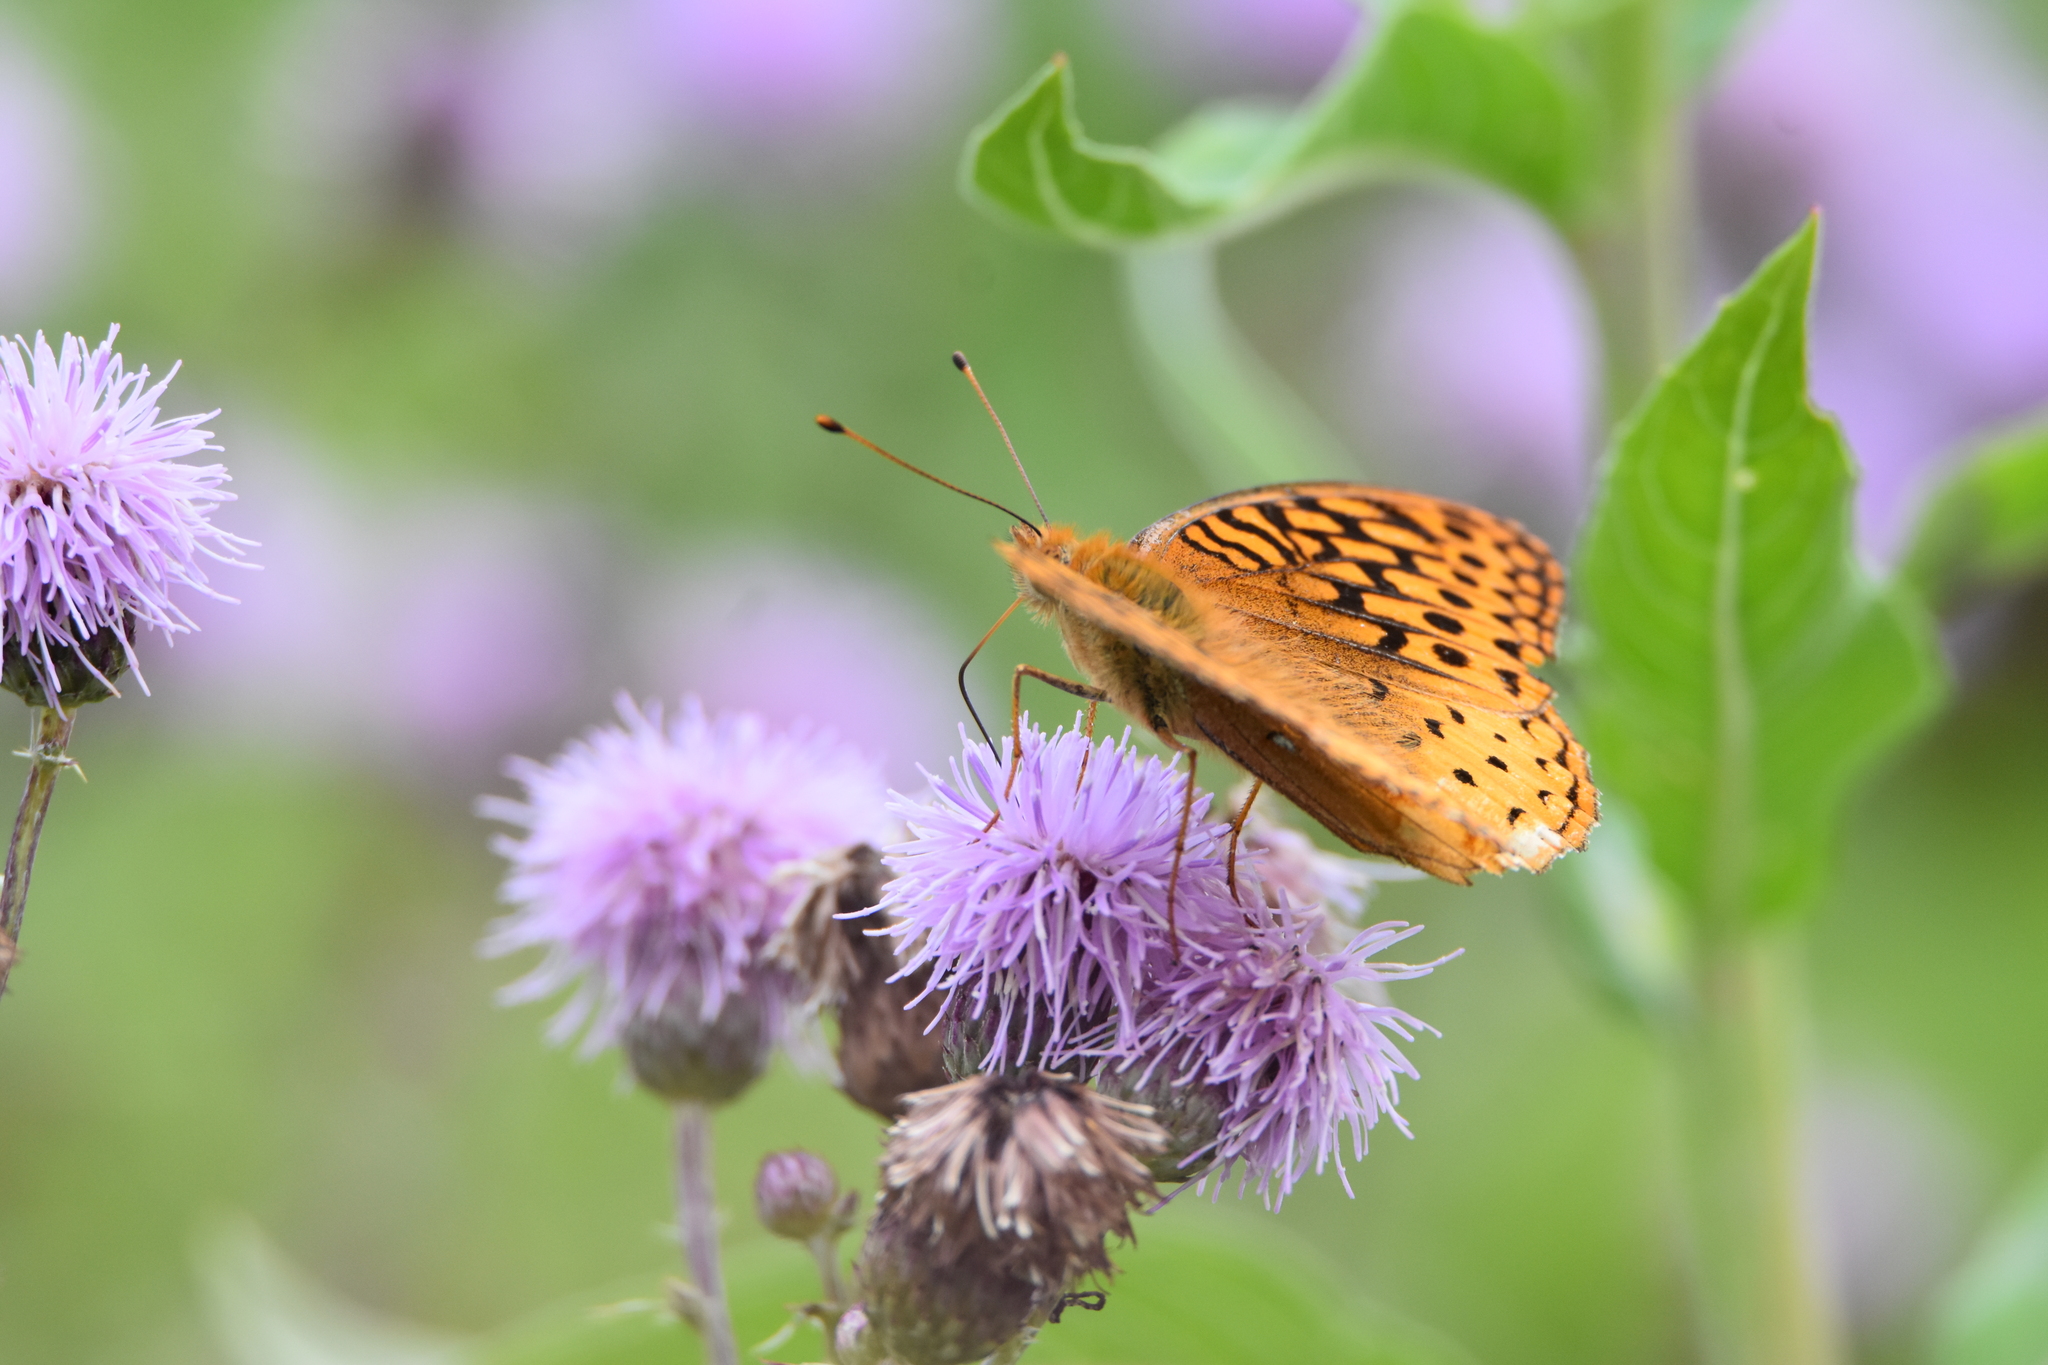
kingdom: Animalia
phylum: Arthropoda
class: Insecta
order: Lepidoptera
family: Nymphalidae
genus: Speyeria
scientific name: Speyeria cybele
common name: Great spangled fritillary
